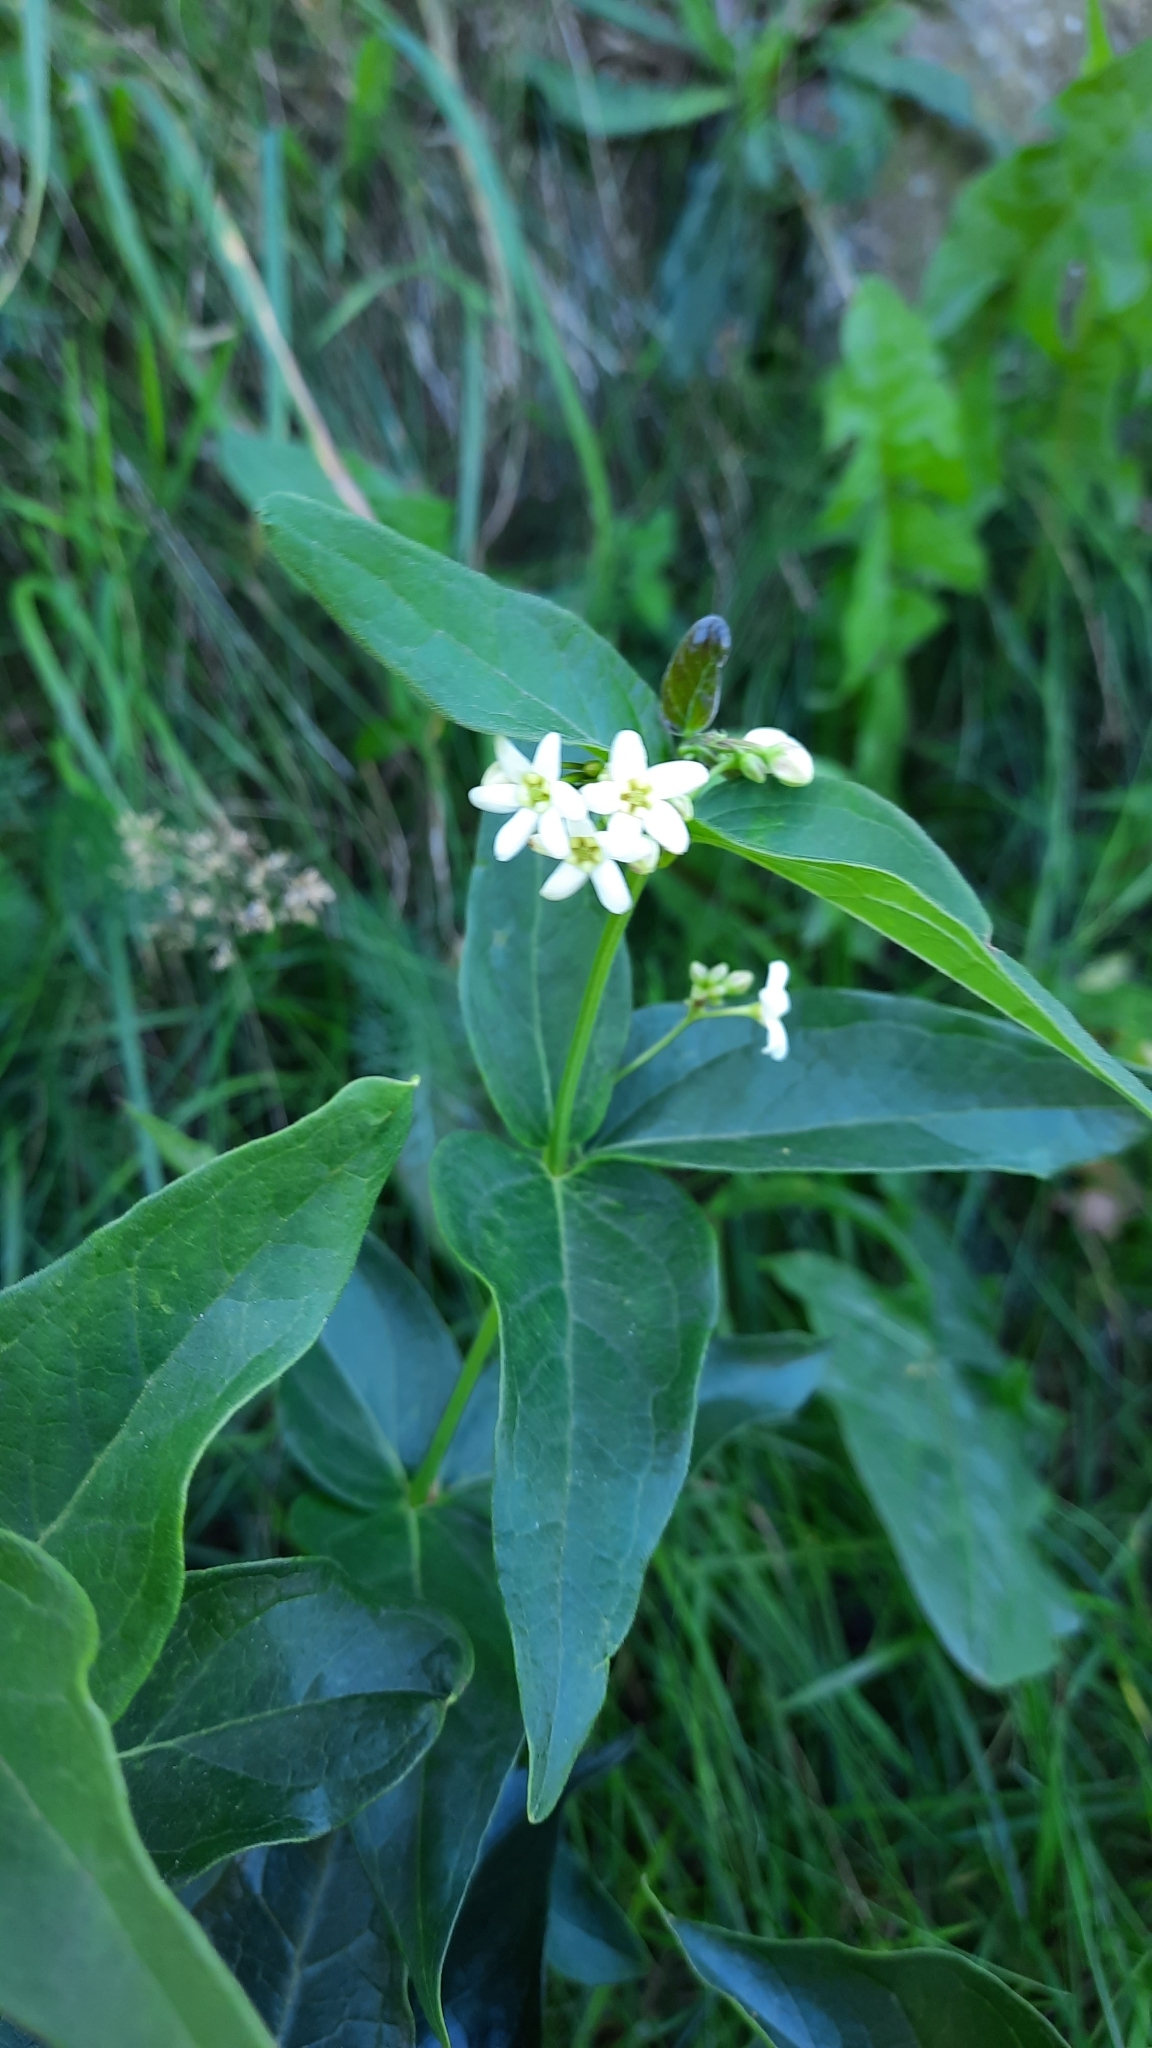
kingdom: Plantae
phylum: Tracheophyta
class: Magnoliopsida
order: Gentianales
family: Apocynaceae
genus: Vincetoxicum
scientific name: Vincetoxicum hirundinaria
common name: White swallowwort
